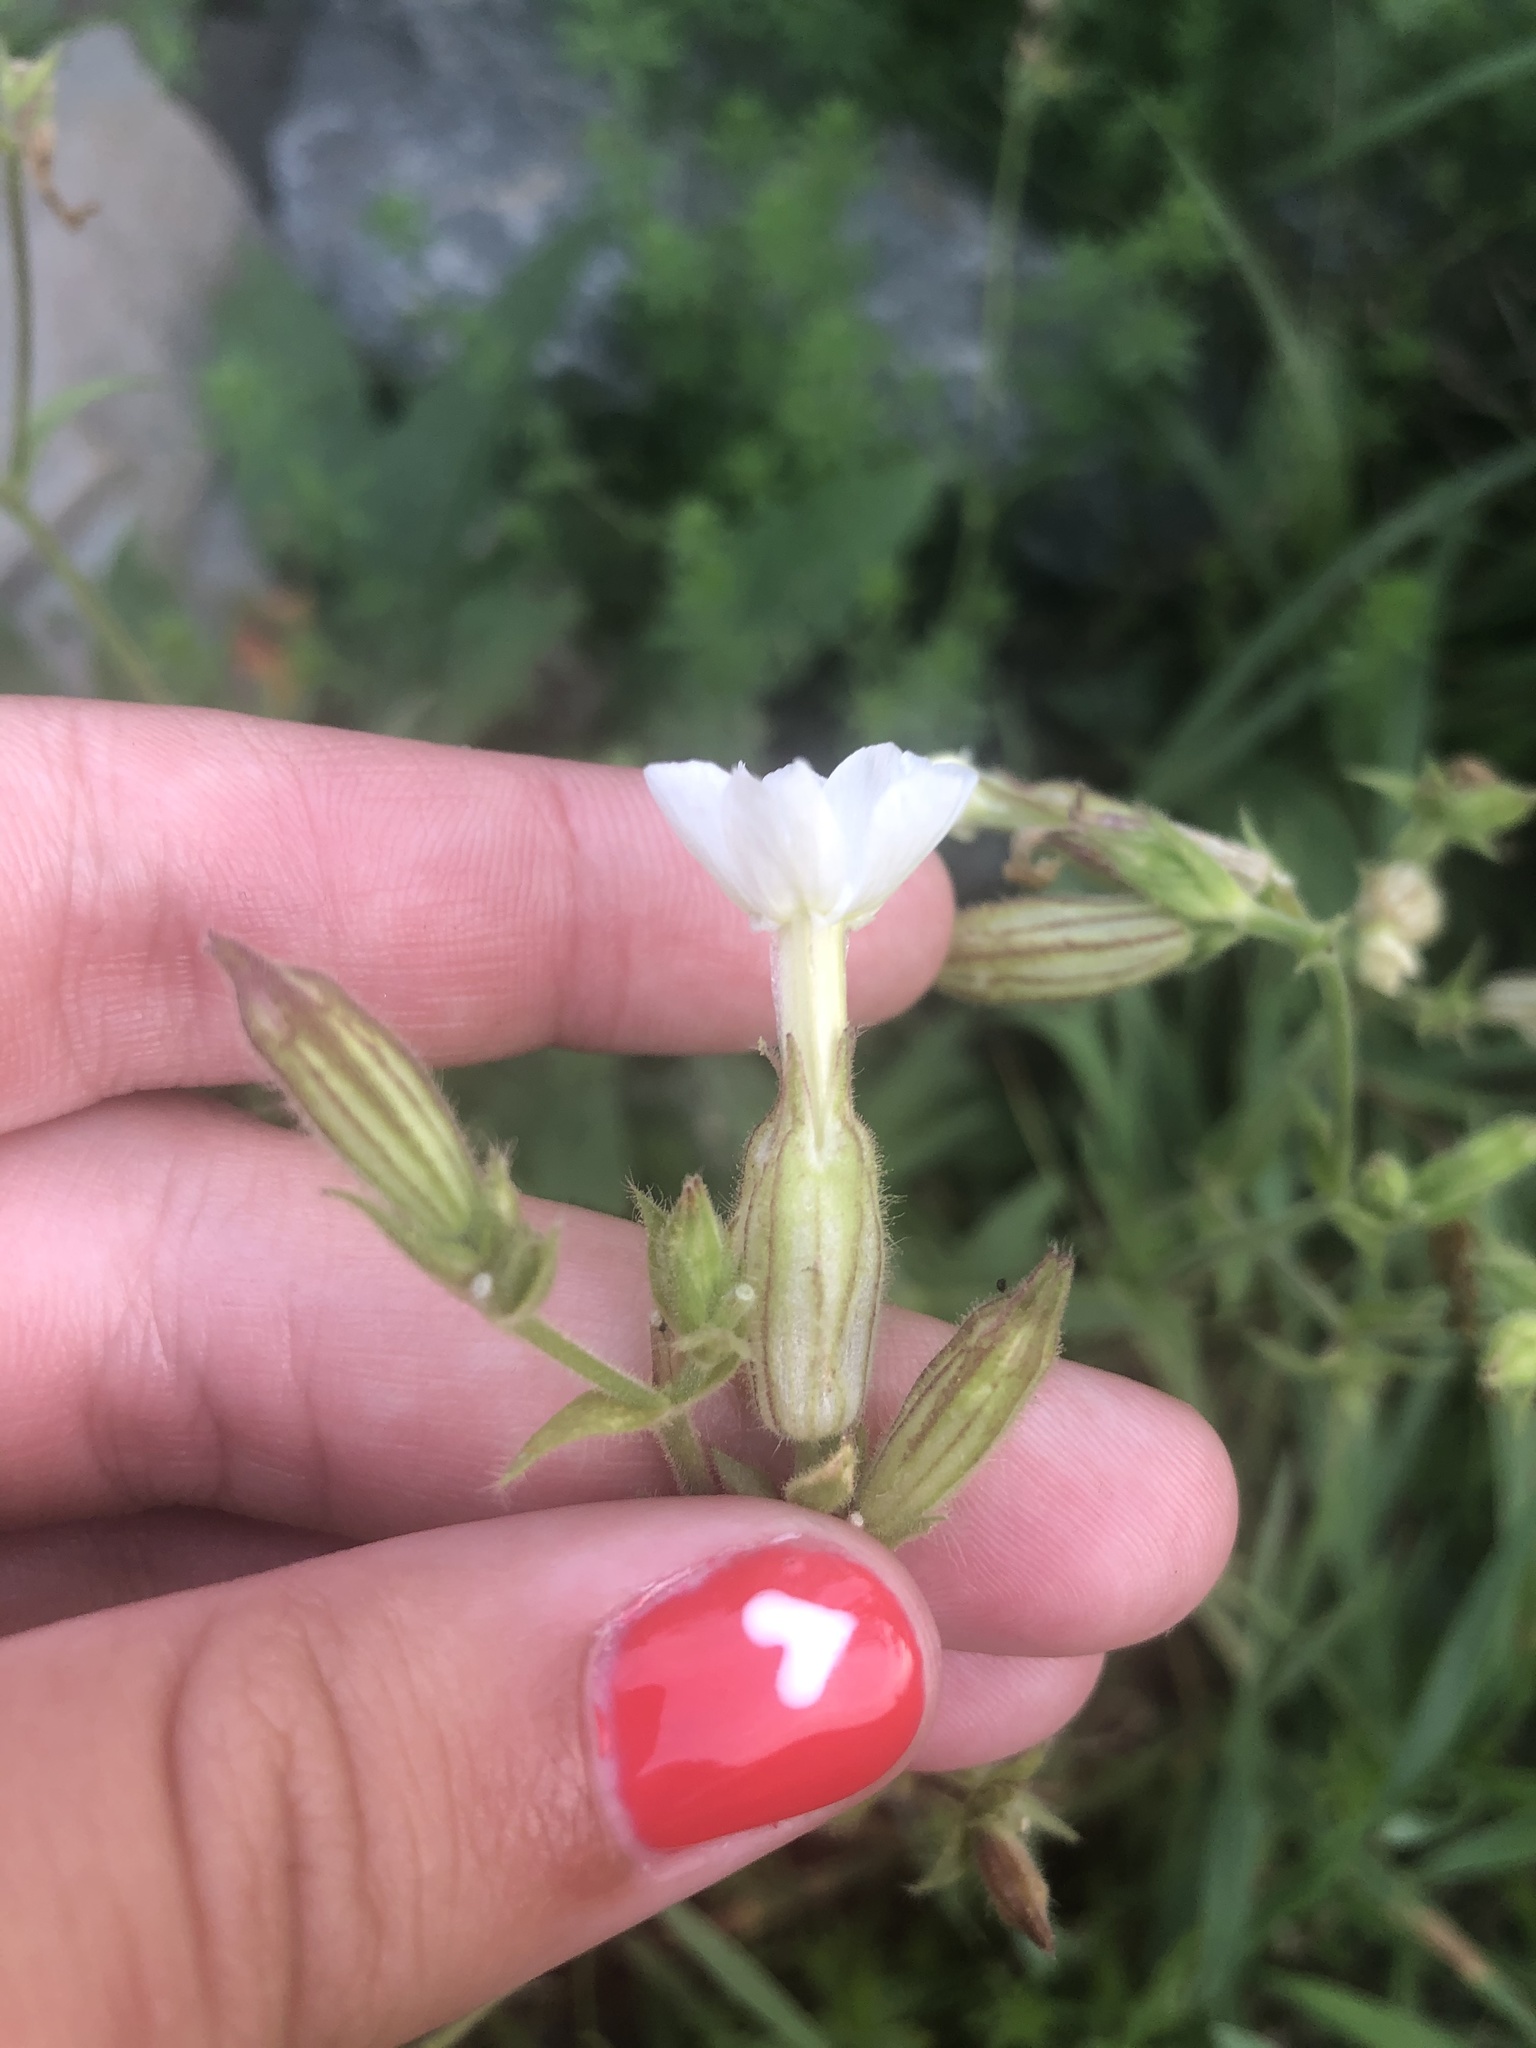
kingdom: Plantae
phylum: Tracheophyta
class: Magnoliopsida
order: Caryophyllales
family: Caryophyllaceae
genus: Silene
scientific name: Silene latifolia
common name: White campion
